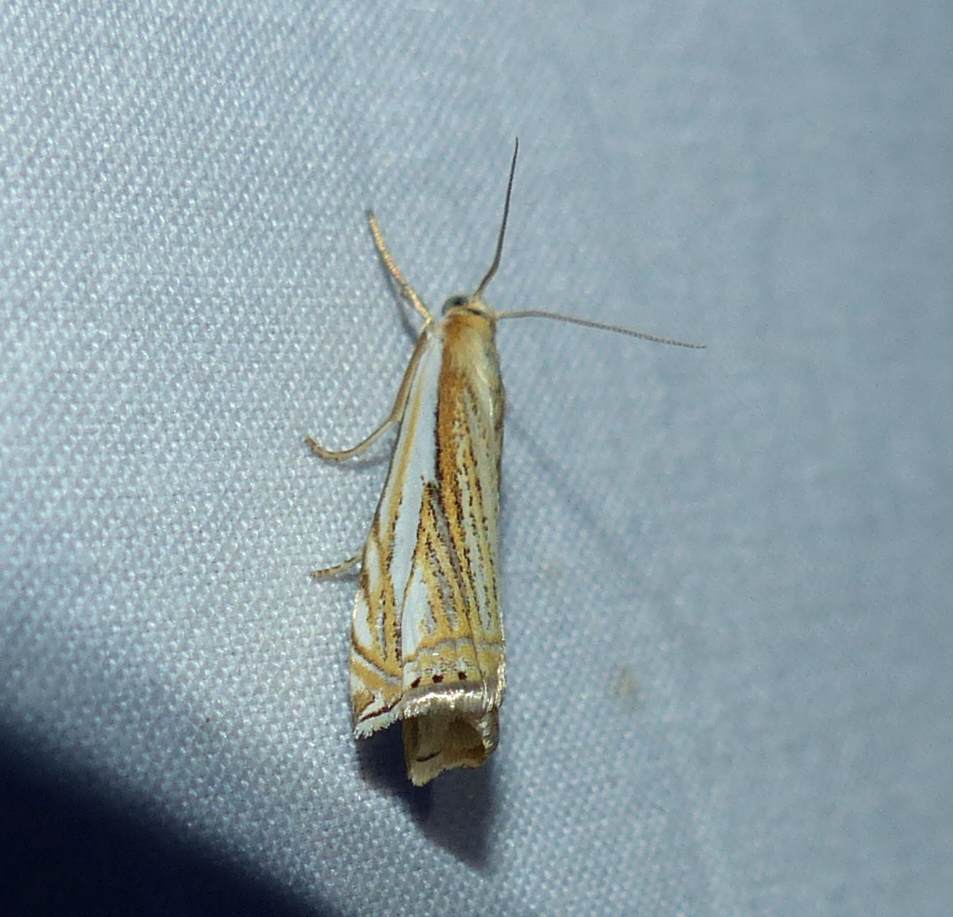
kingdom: Animalia
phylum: Arthropoda
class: Insecta
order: Lepidoptera
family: Crambidae
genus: Crambus
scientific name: Crambus saltuellus
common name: Pasture grass-veneer
